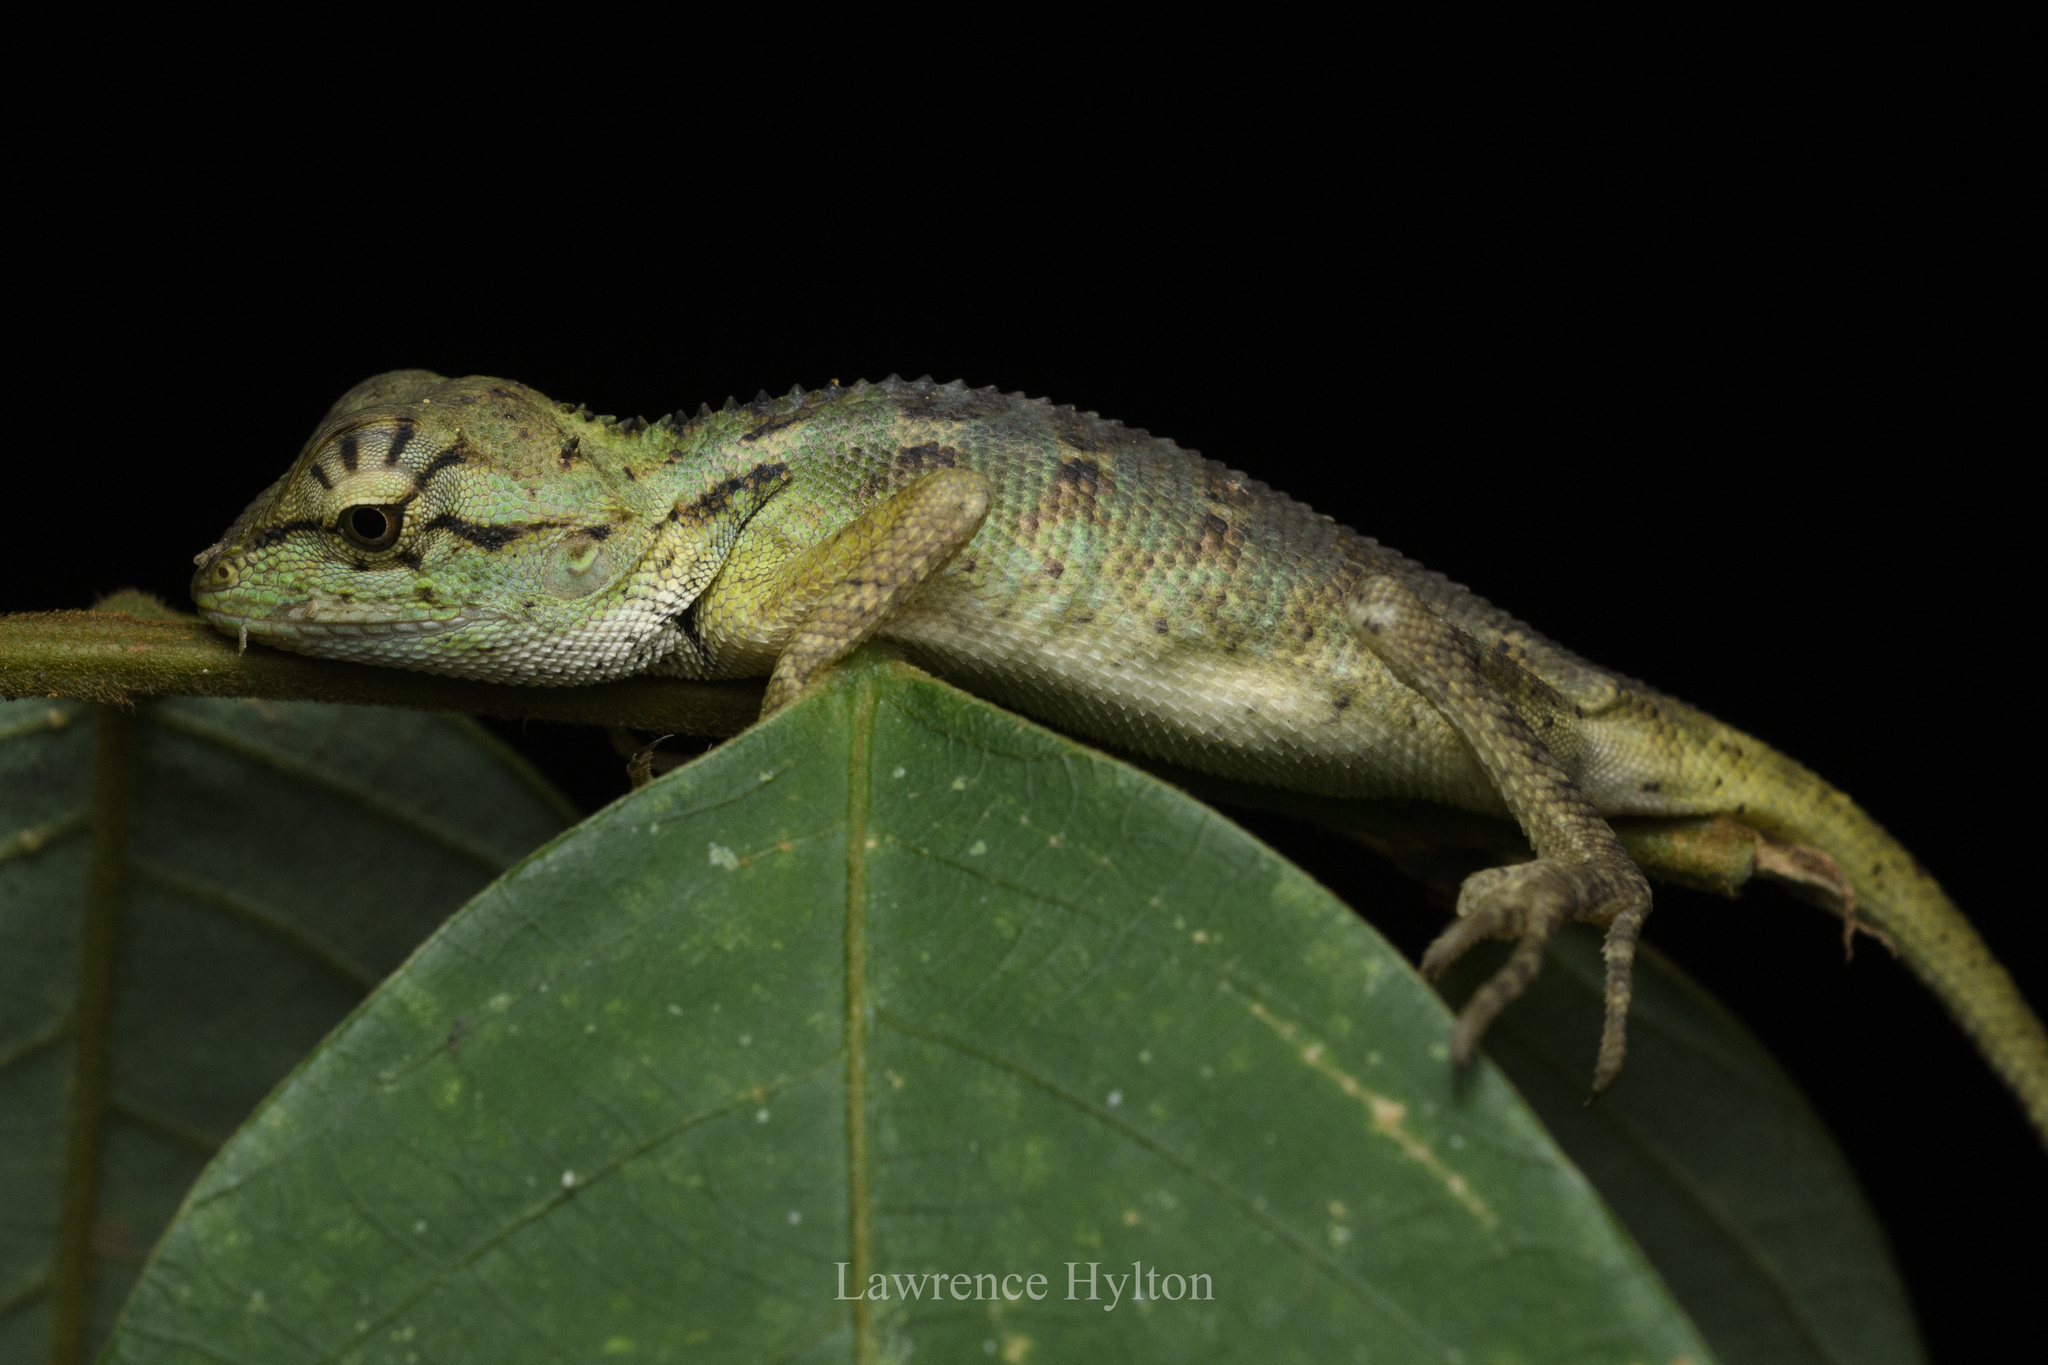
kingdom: Animalia
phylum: Chordata
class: Squamata
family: Agamidae
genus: Calotes
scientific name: Calotes emma
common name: Thailand bloodsucker
